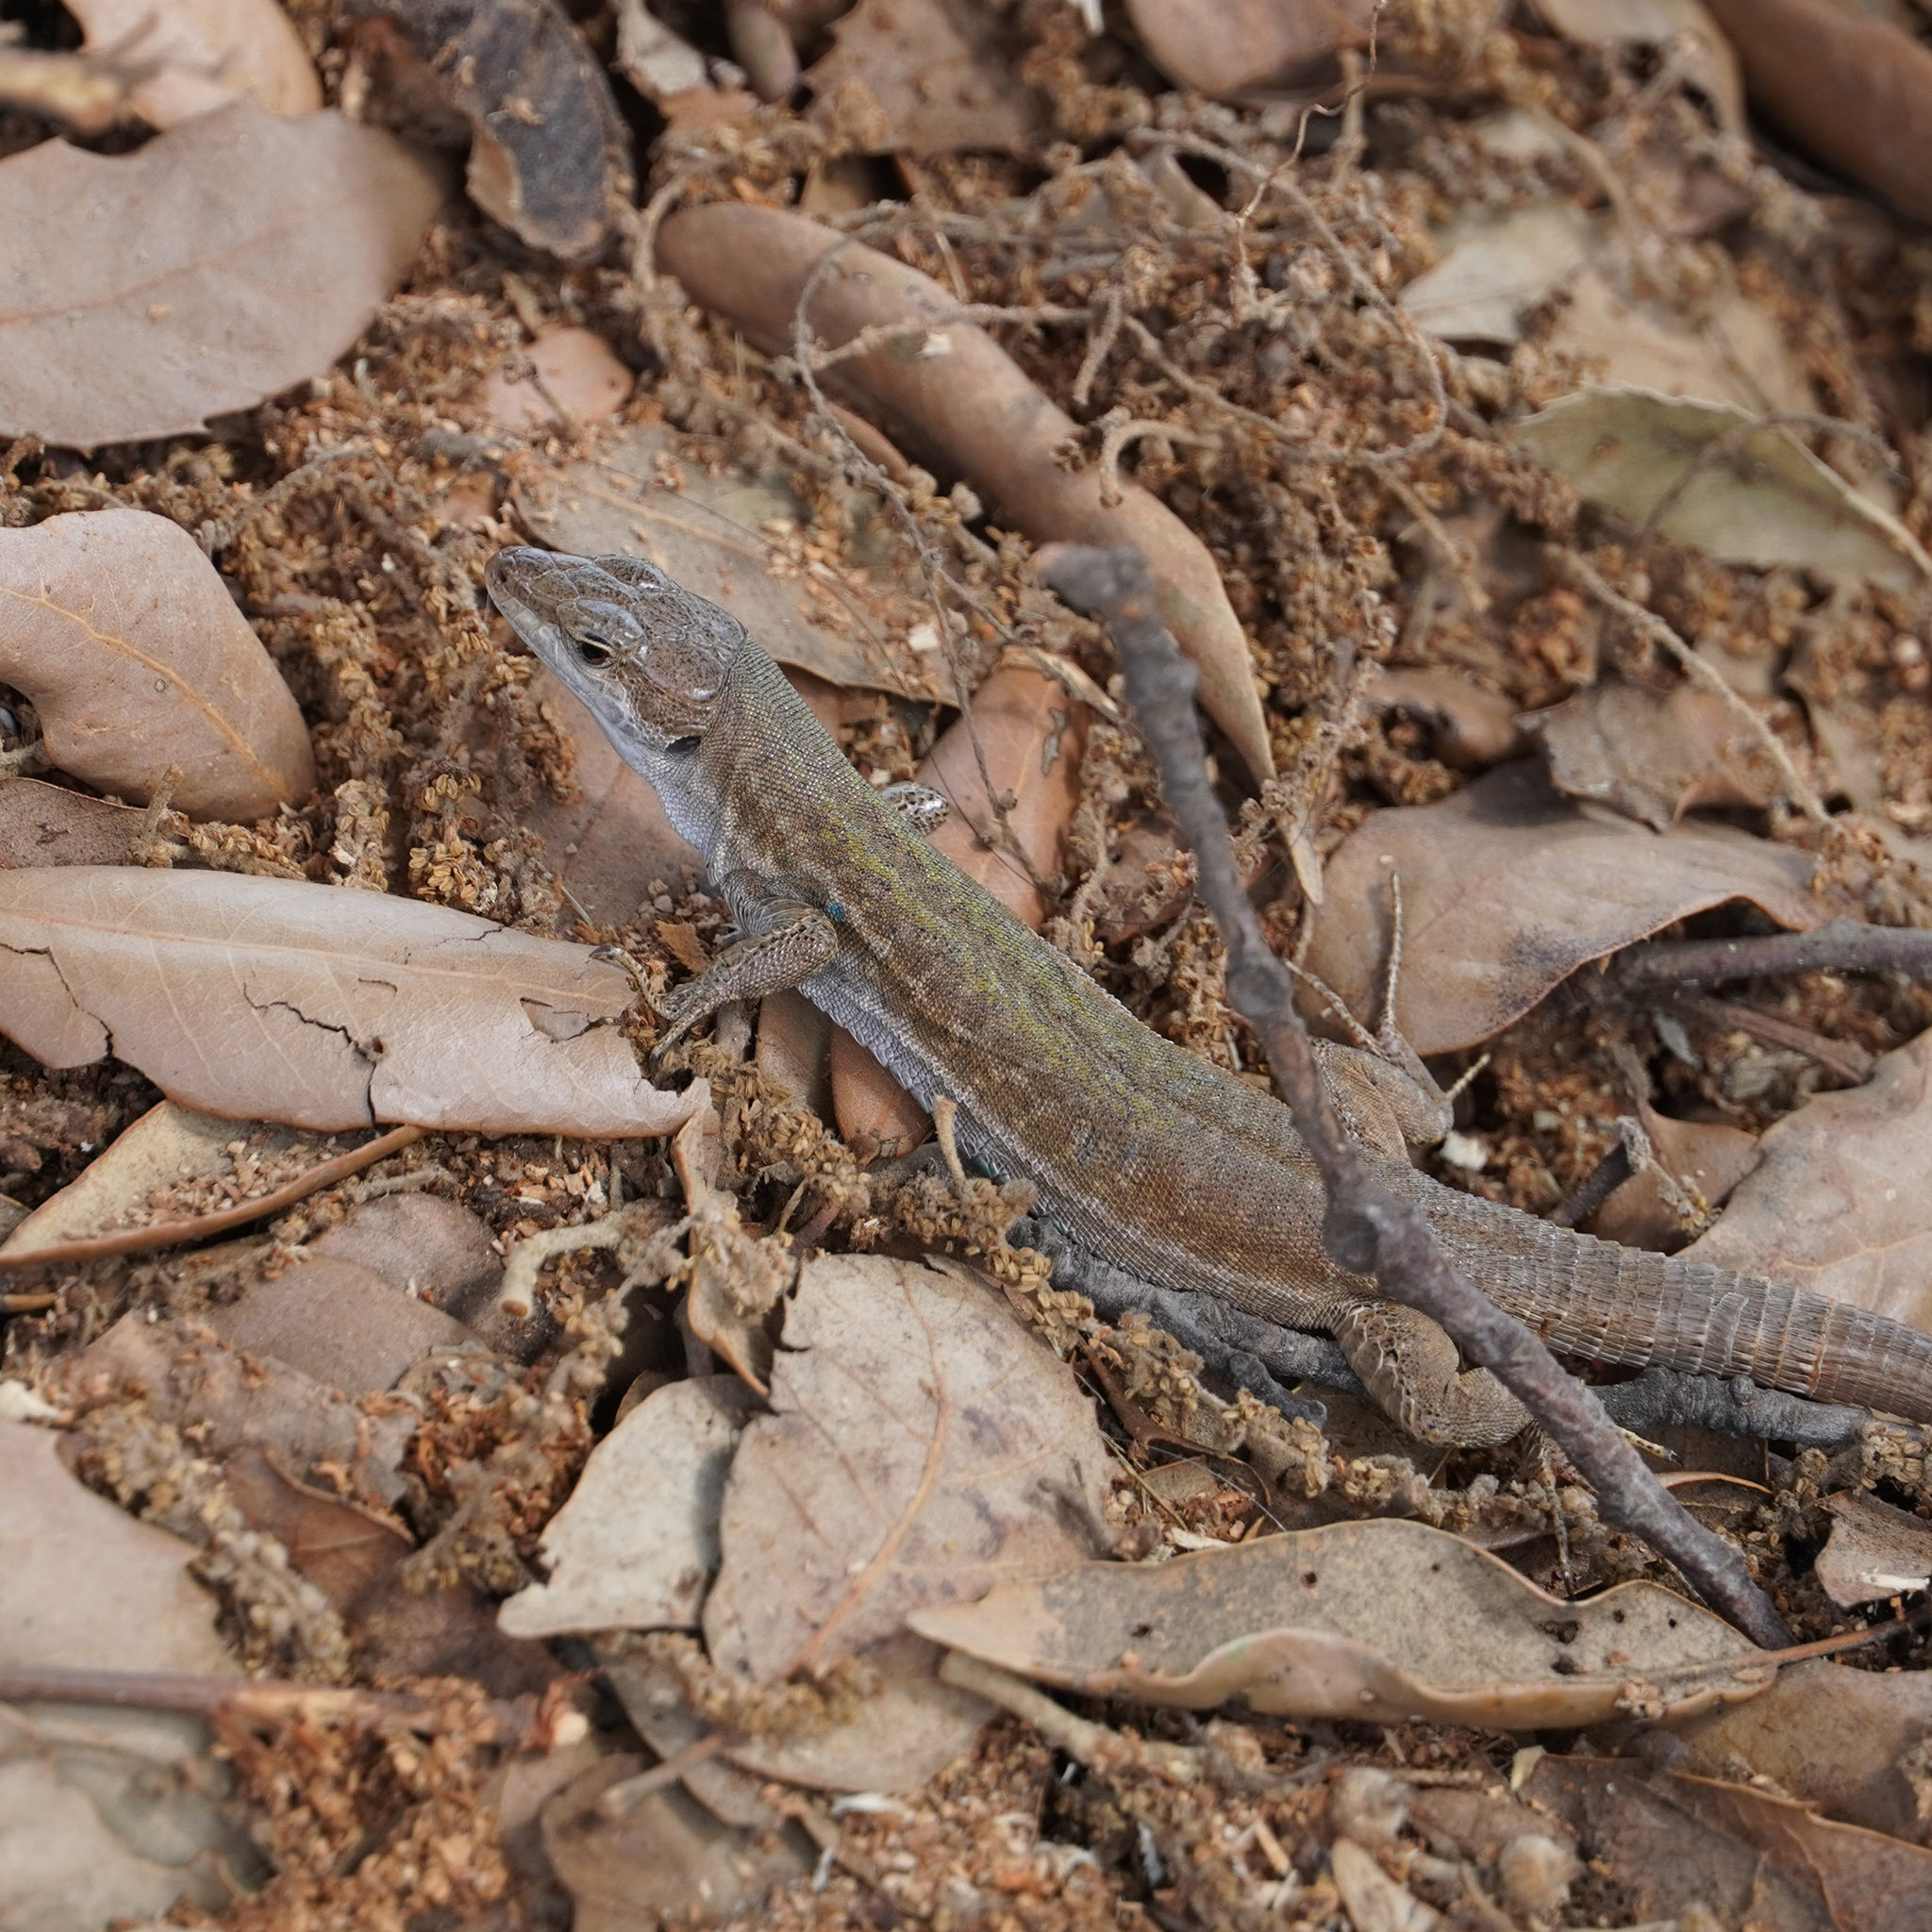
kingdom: Animalia
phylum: Chordata
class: Squamata
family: Lacertidae
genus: Podarcis
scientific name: Podarcis siculus
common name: Italian wall lizard
